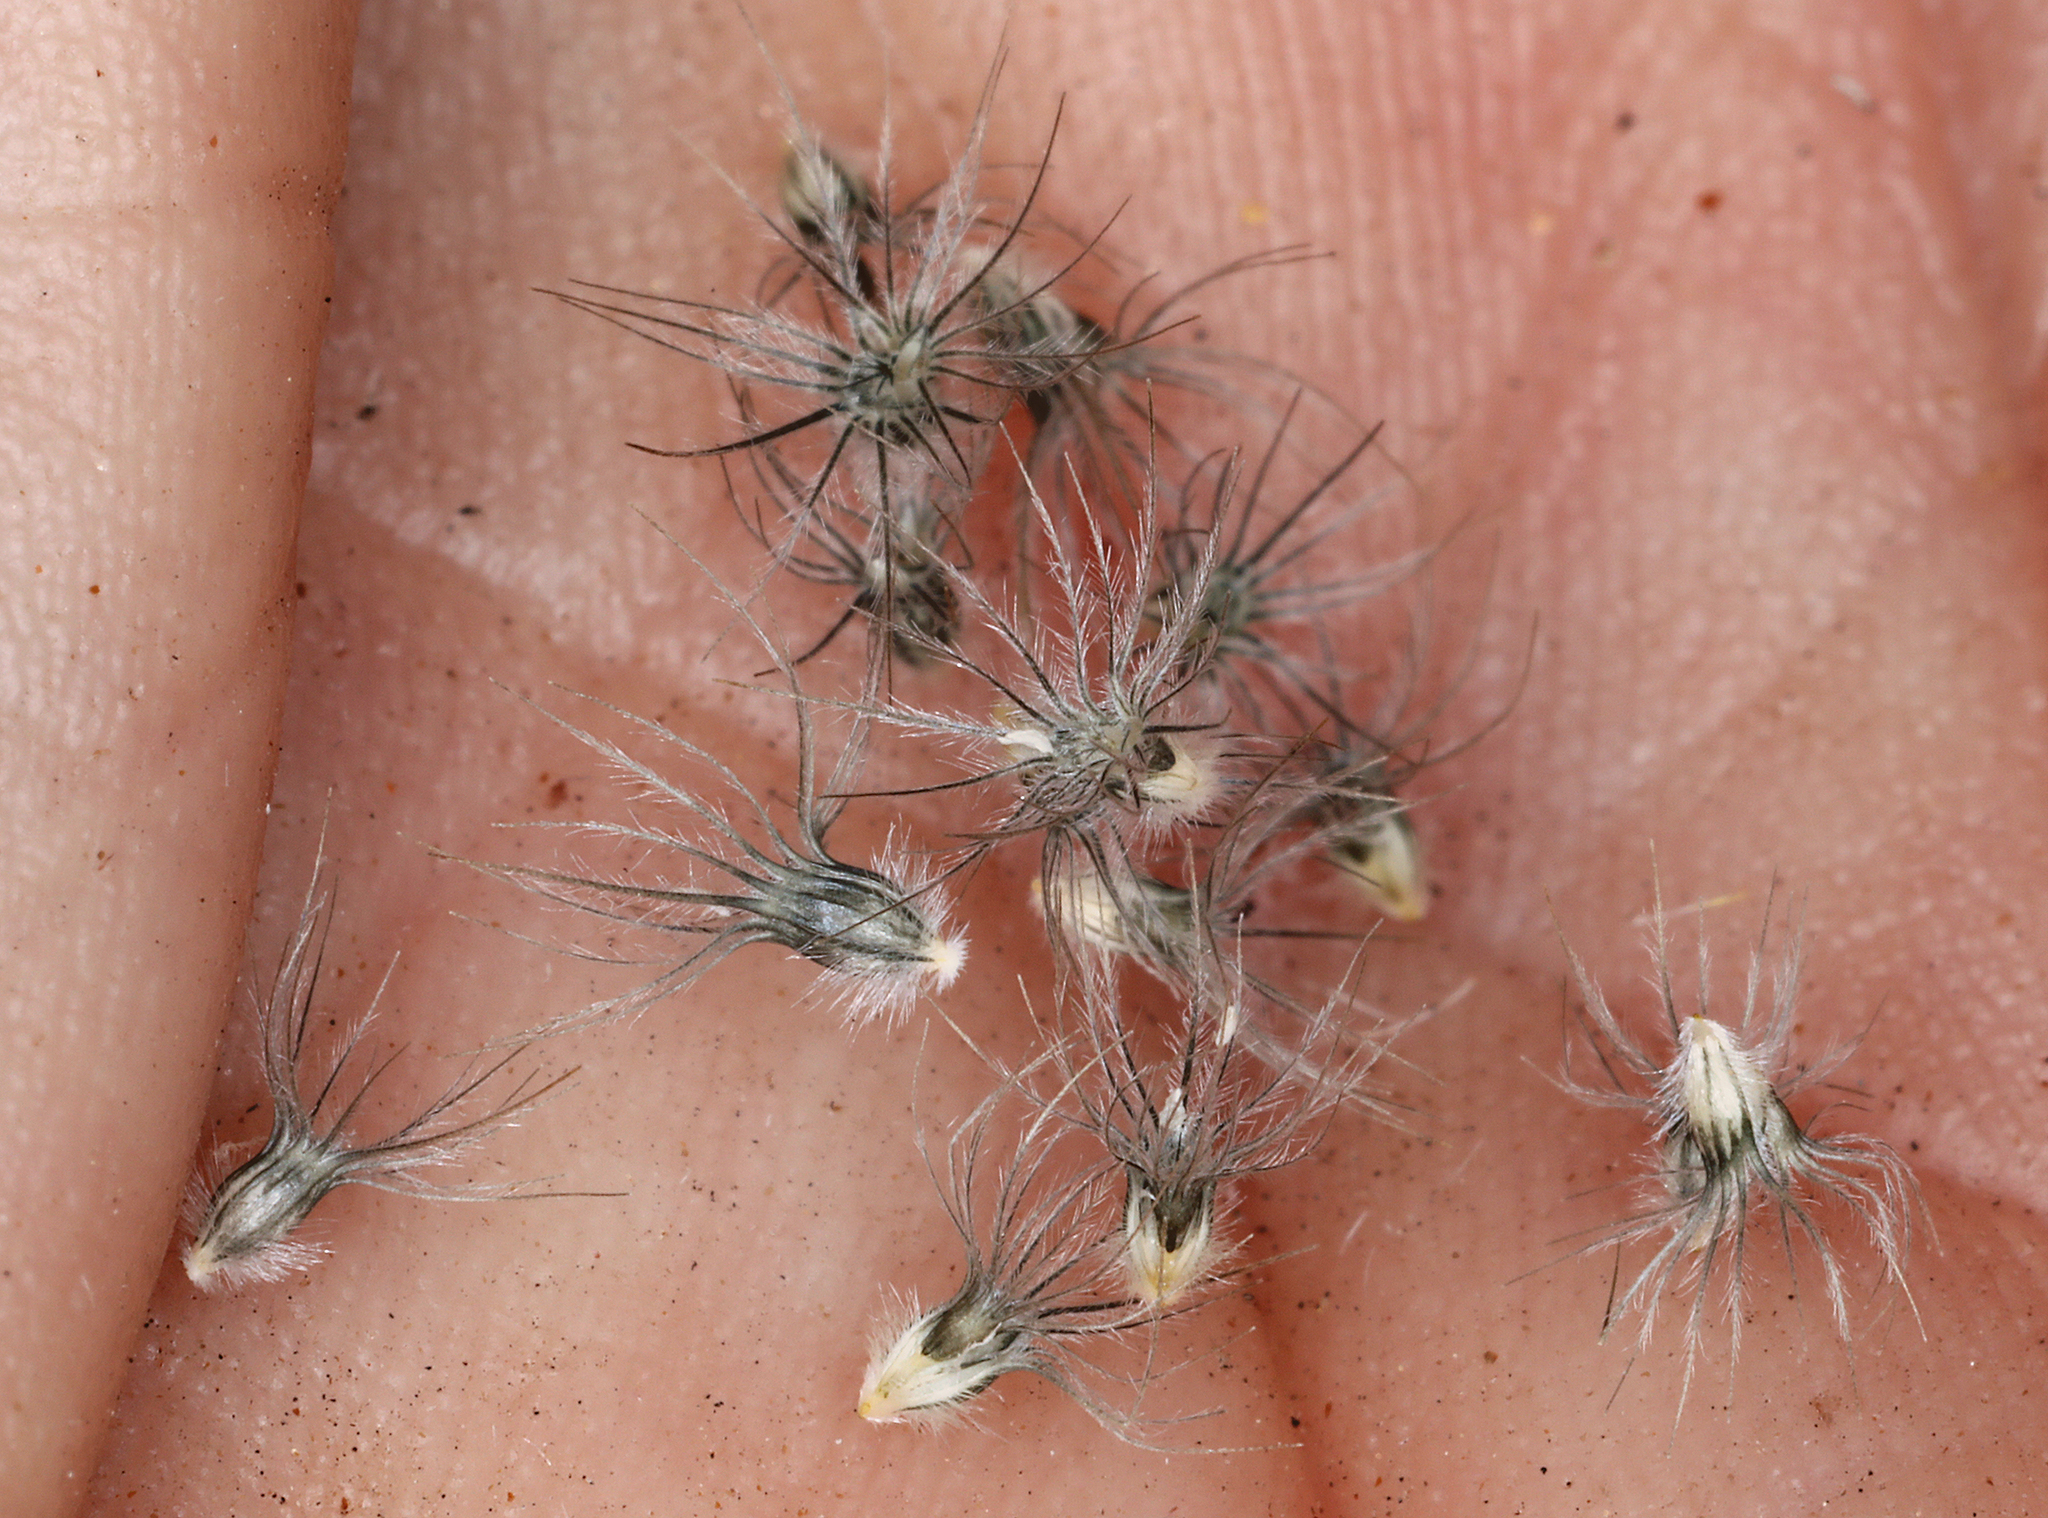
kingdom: Plantae
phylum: Tracheophyta
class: Liliopsida
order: Poales
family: Poaceae
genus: Enneapogon
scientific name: Enneapogon desvauxii
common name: Feather pappus grass
